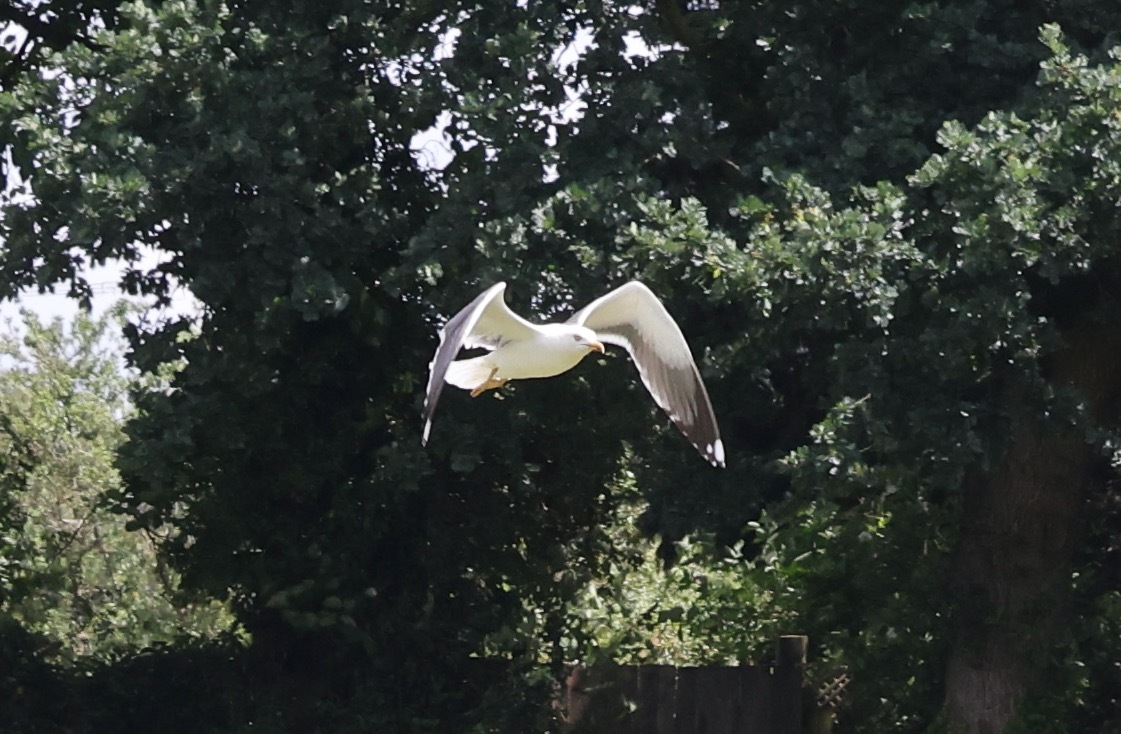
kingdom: Animalia
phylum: Chordata
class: Aves
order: Charadriiformes
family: Laridae
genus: Larus
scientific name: Larus fuscus
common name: Lesser black-backed gull
